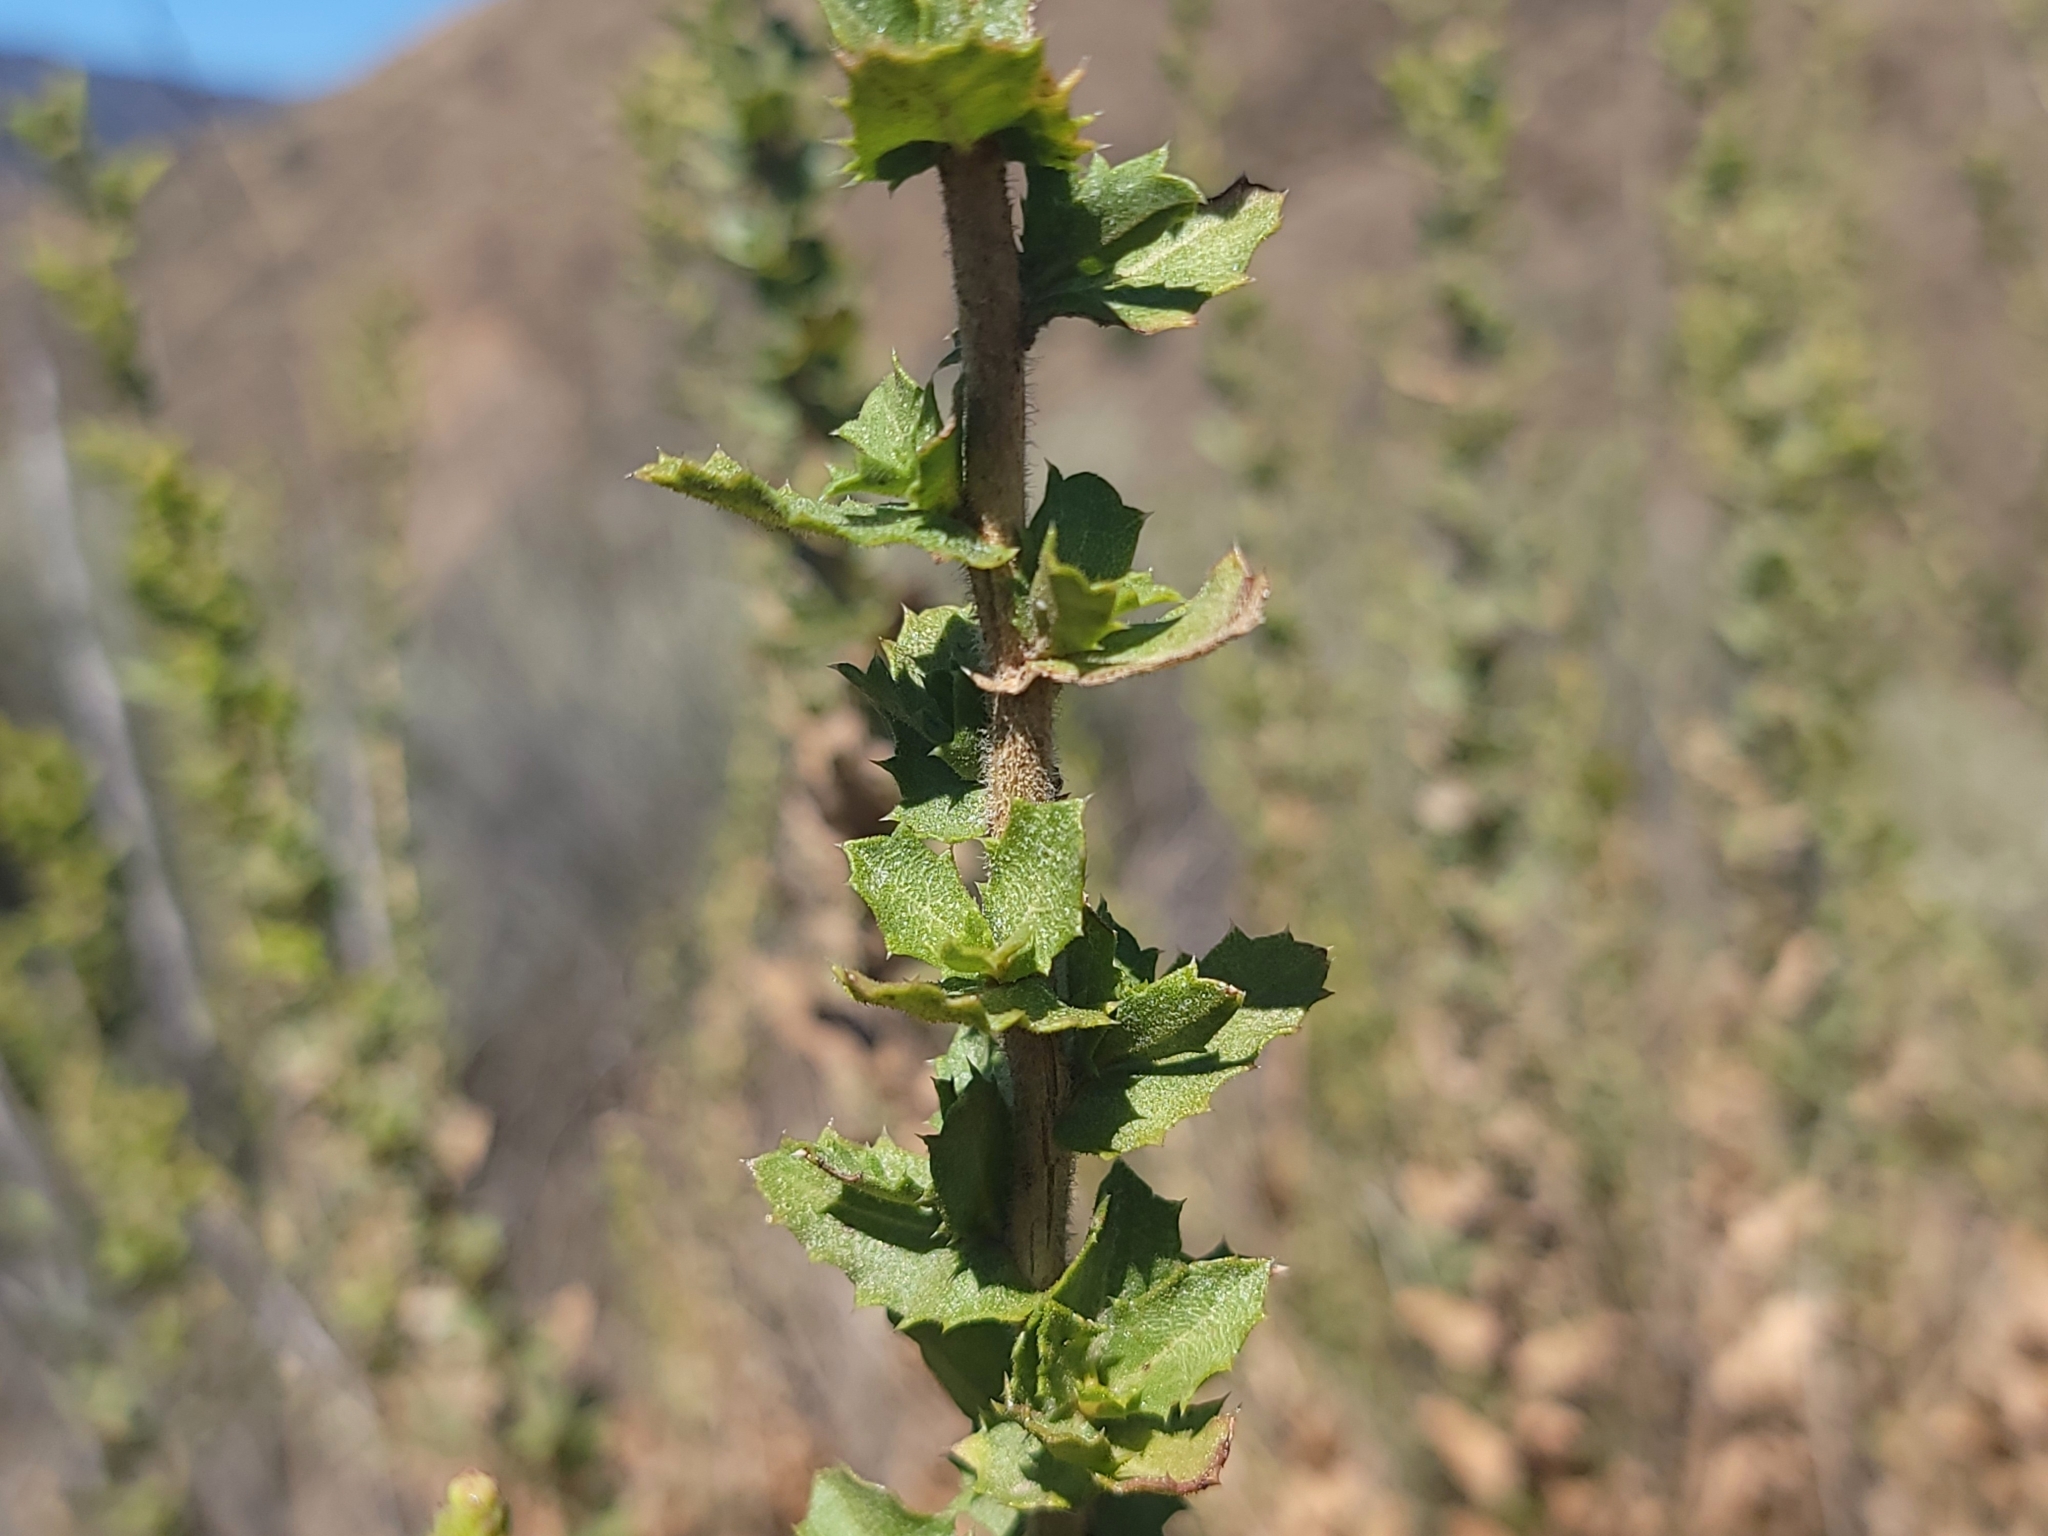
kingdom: Plantae
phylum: Tracheophyta
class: Magnoliopsida
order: Asterales
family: Asteraceae
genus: Hazardia
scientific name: Hazardia squarrosa
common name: Saw-tooth goldenbush
